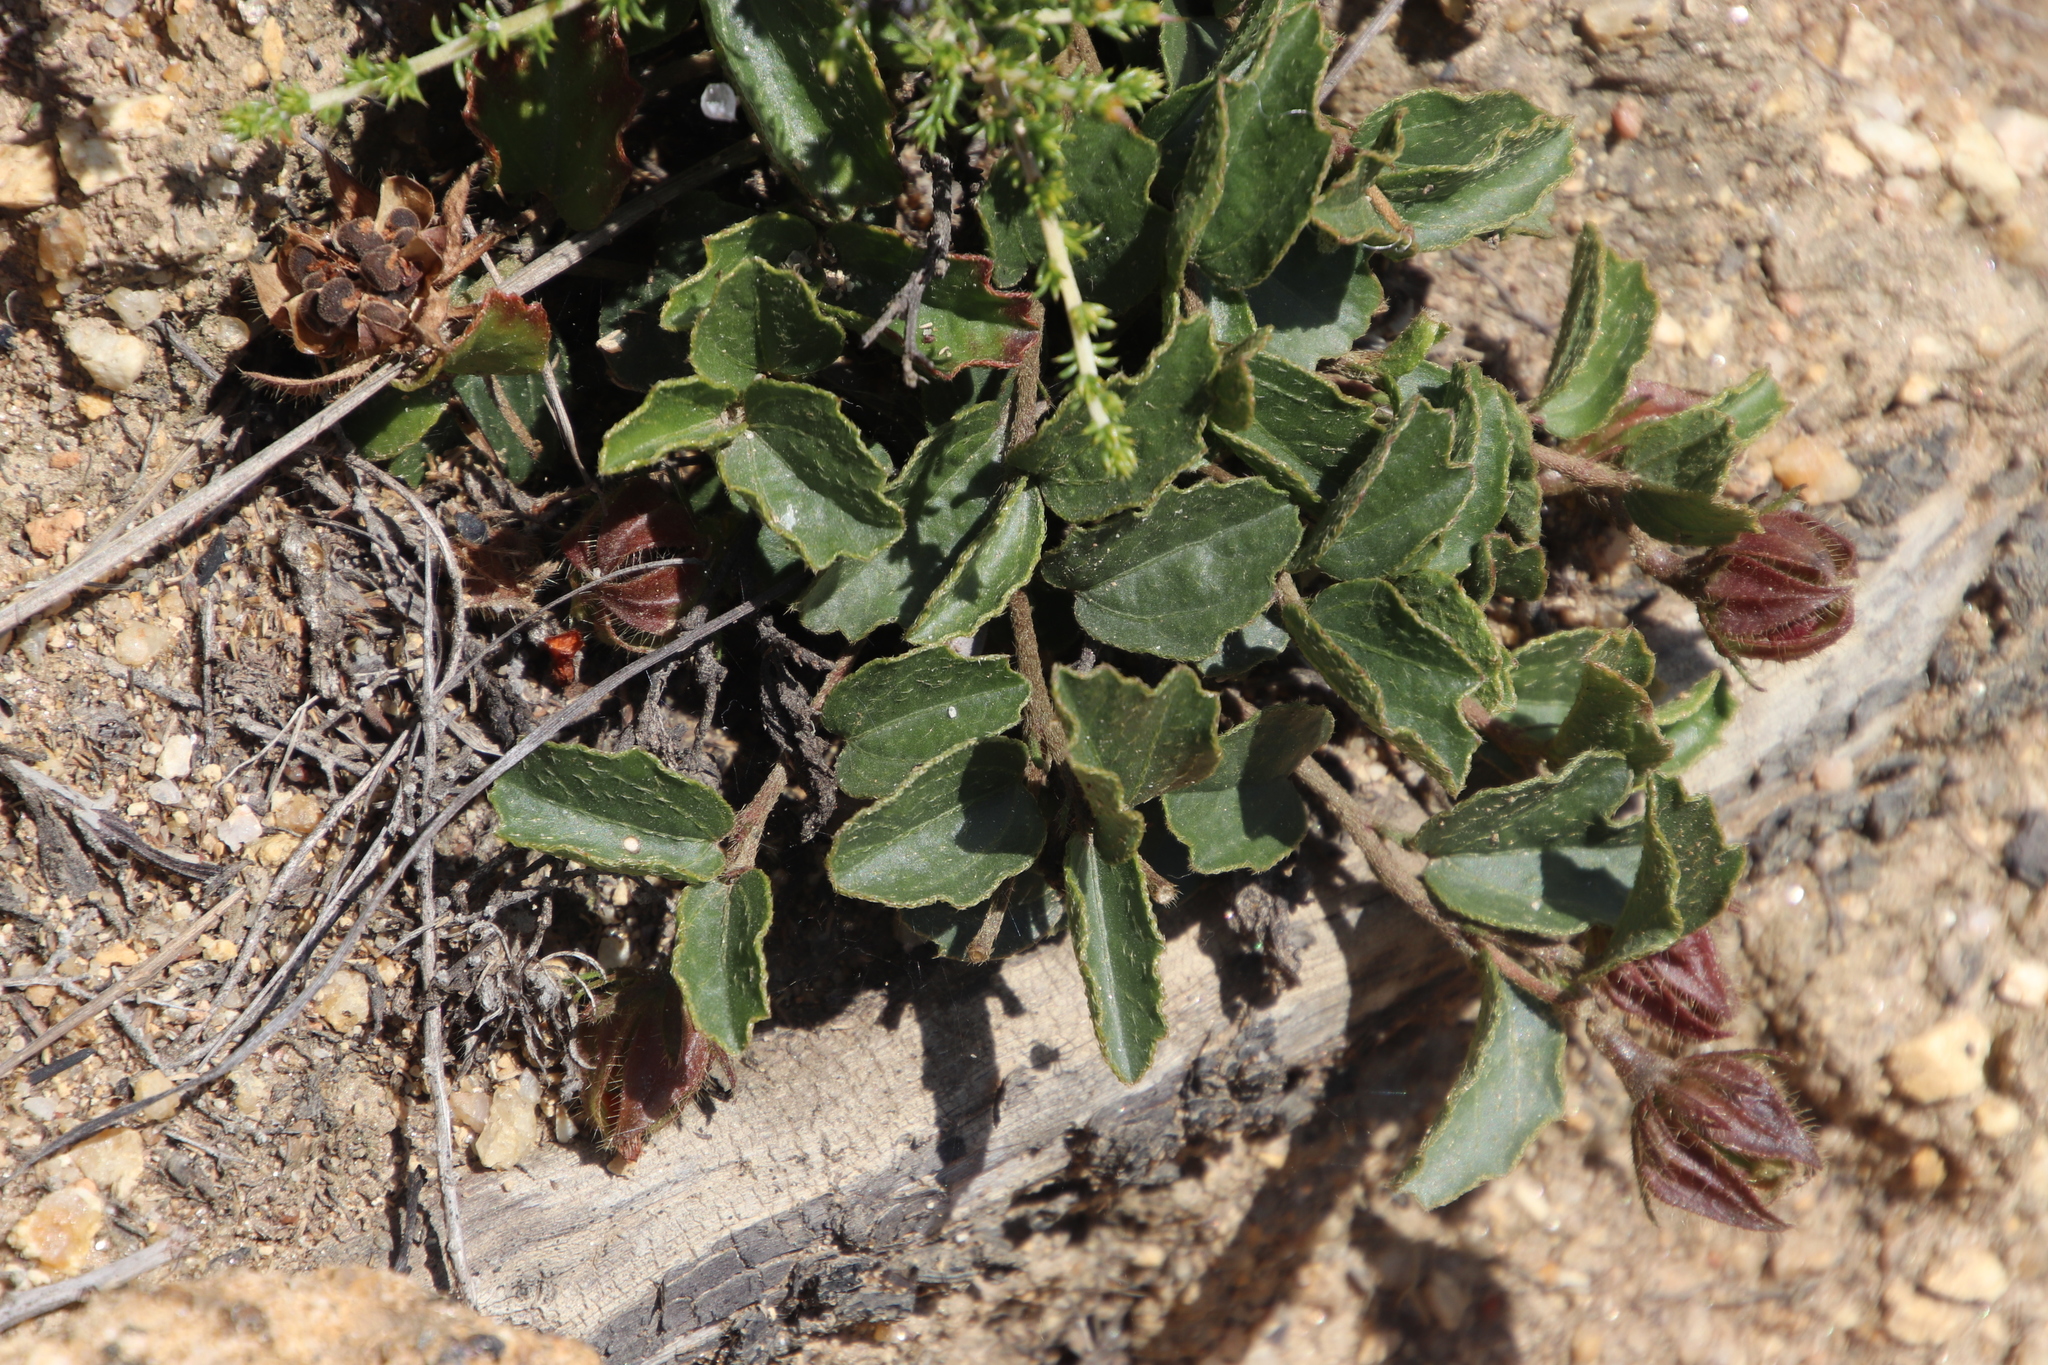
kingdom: Plantae
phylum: Tracheophyta
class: Magnoliopsida
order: Malvales
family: Malvaceae
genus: Hibiscus
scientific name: Hibiscus aethiopicus
